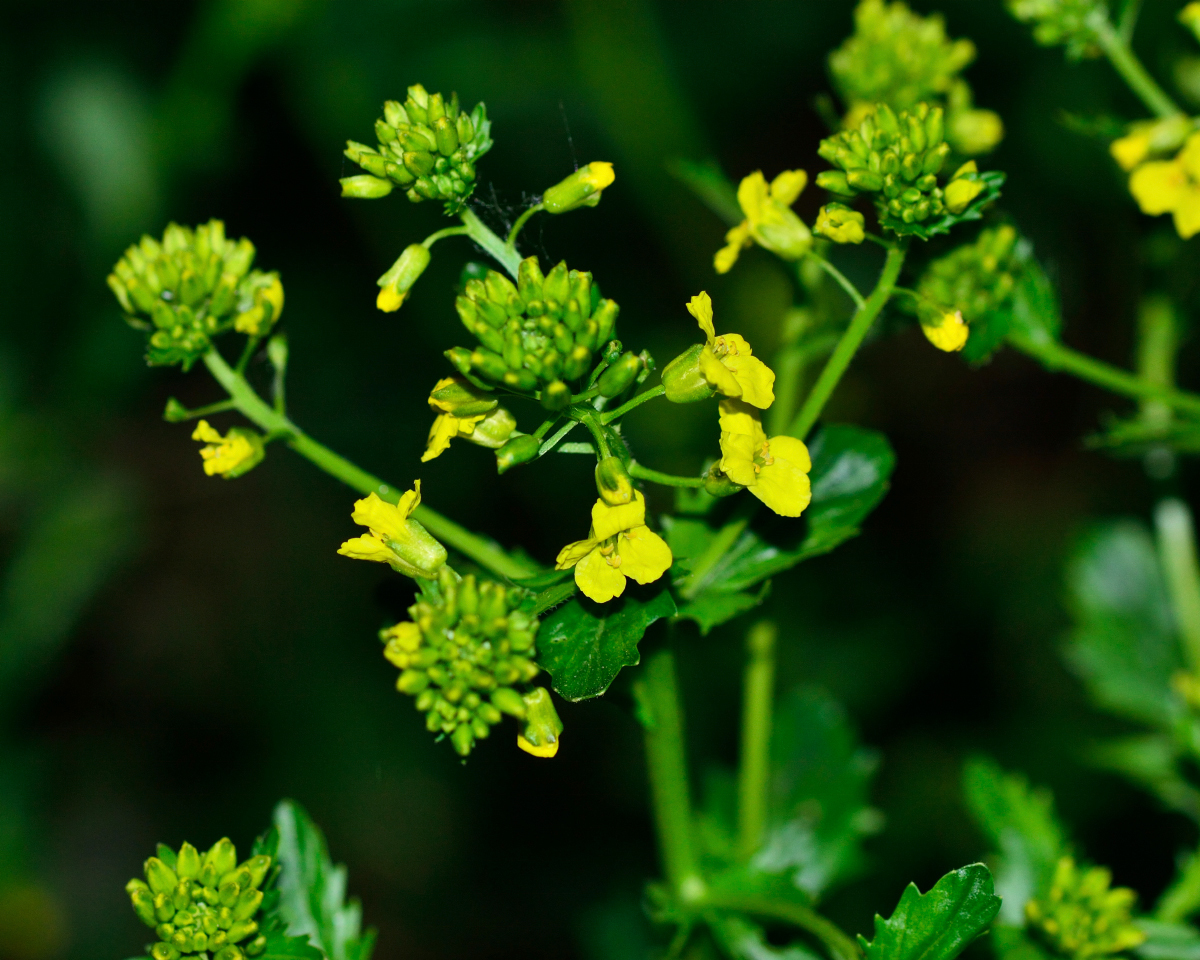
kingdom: Plantae
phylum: Tracheophyta
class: Magnoliopsida
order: Brassicales
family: Brassicaceae
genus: Barbarea
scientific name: Barbarea vulgaris
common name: Cressy-greens
